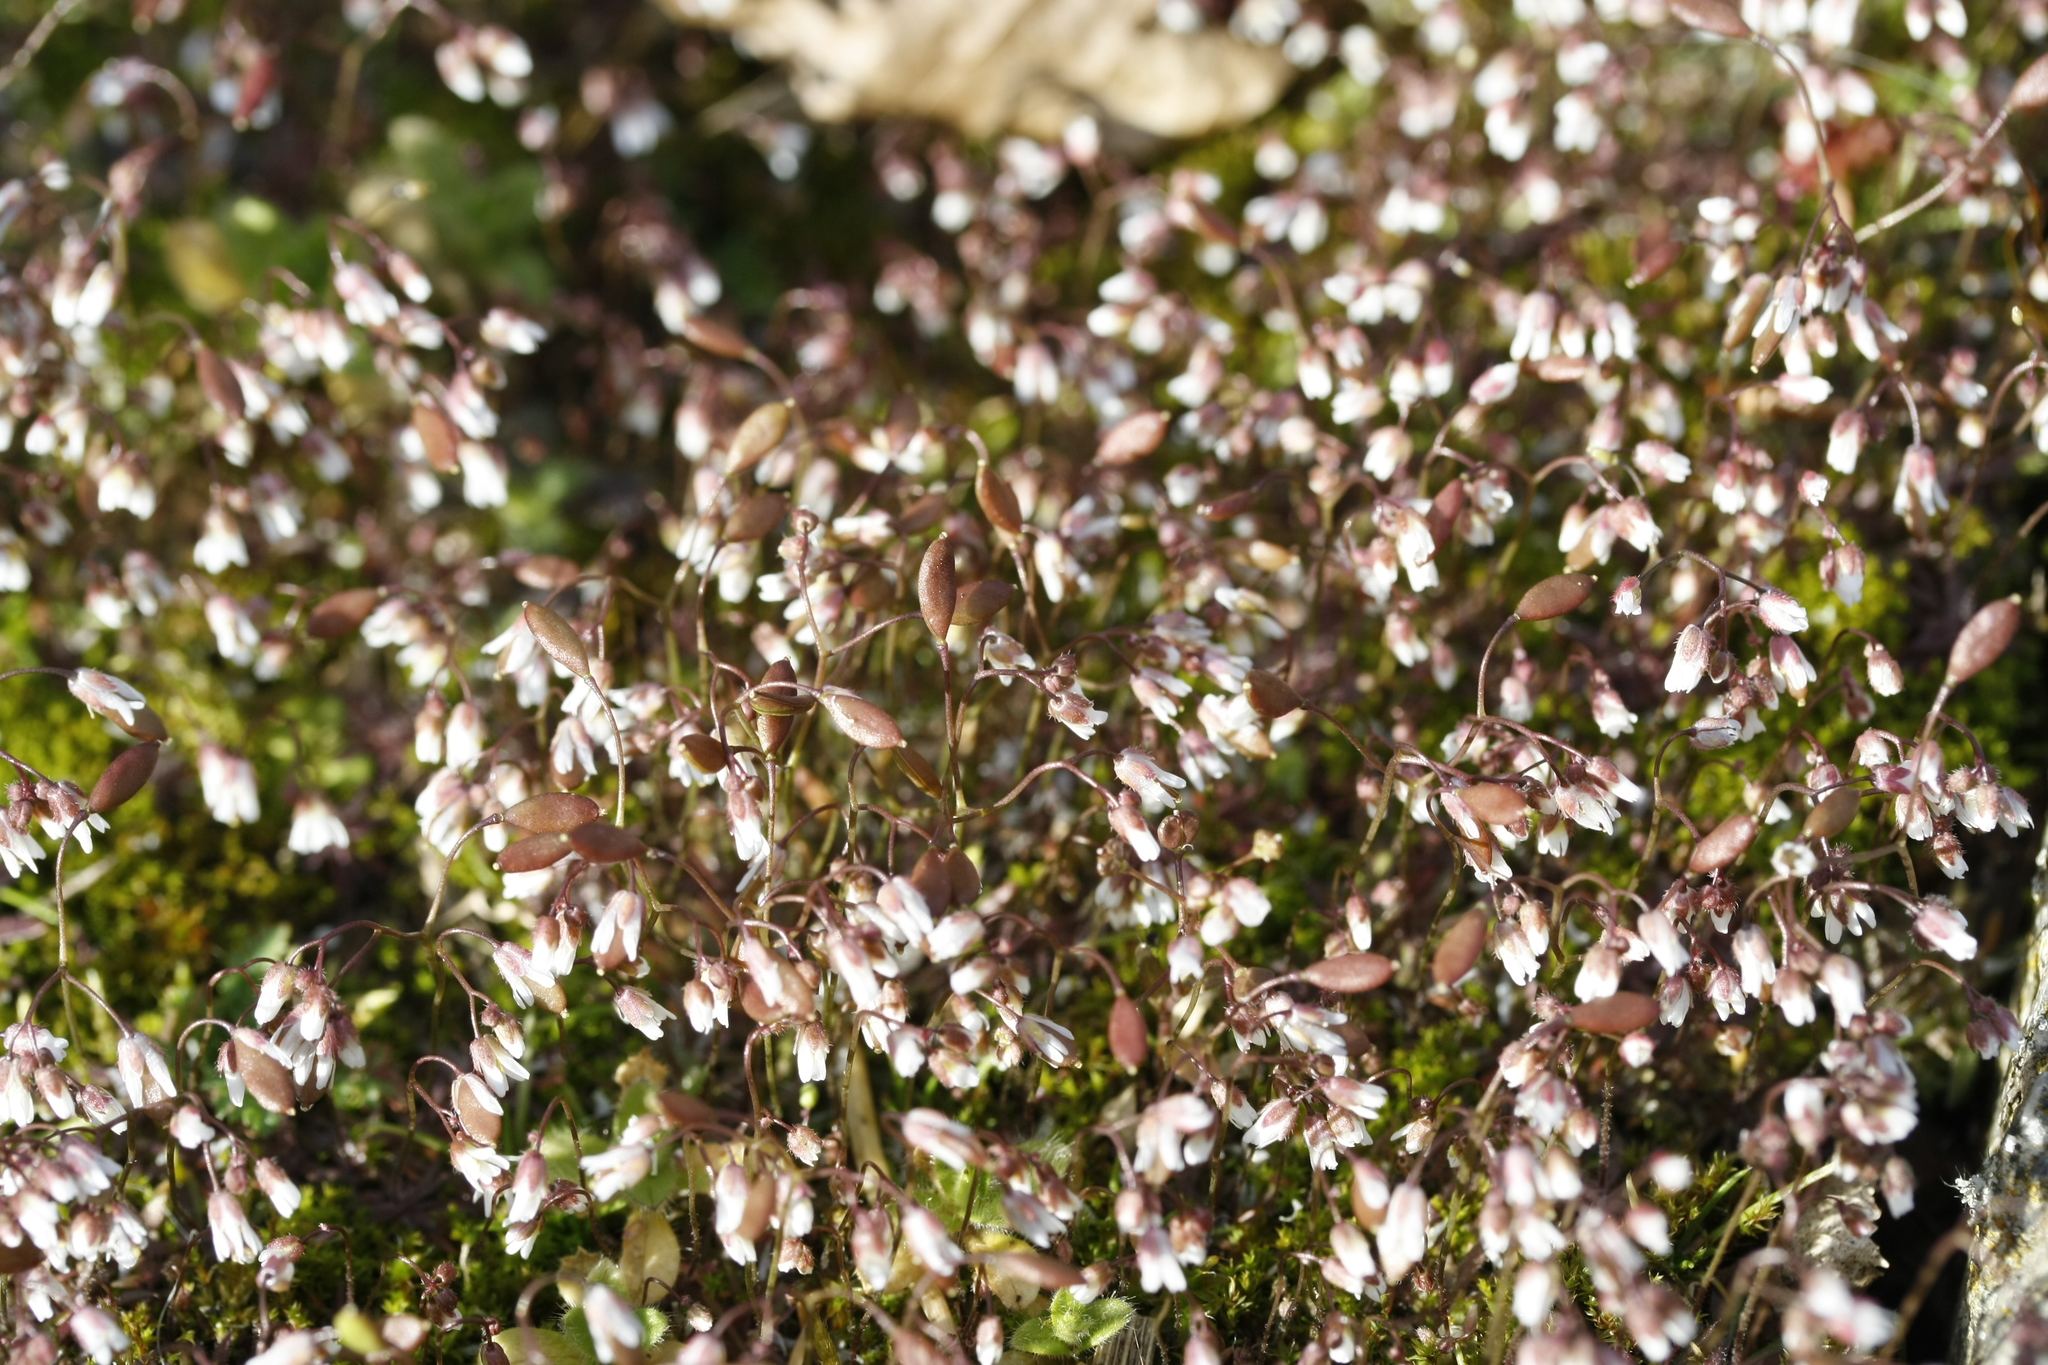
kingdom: Plantae
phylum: Tracheophyta
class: Magnoliopsida
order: Brassicales
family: Brassicaceae
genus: Draba
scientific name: Draba verna
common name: Spring draba
